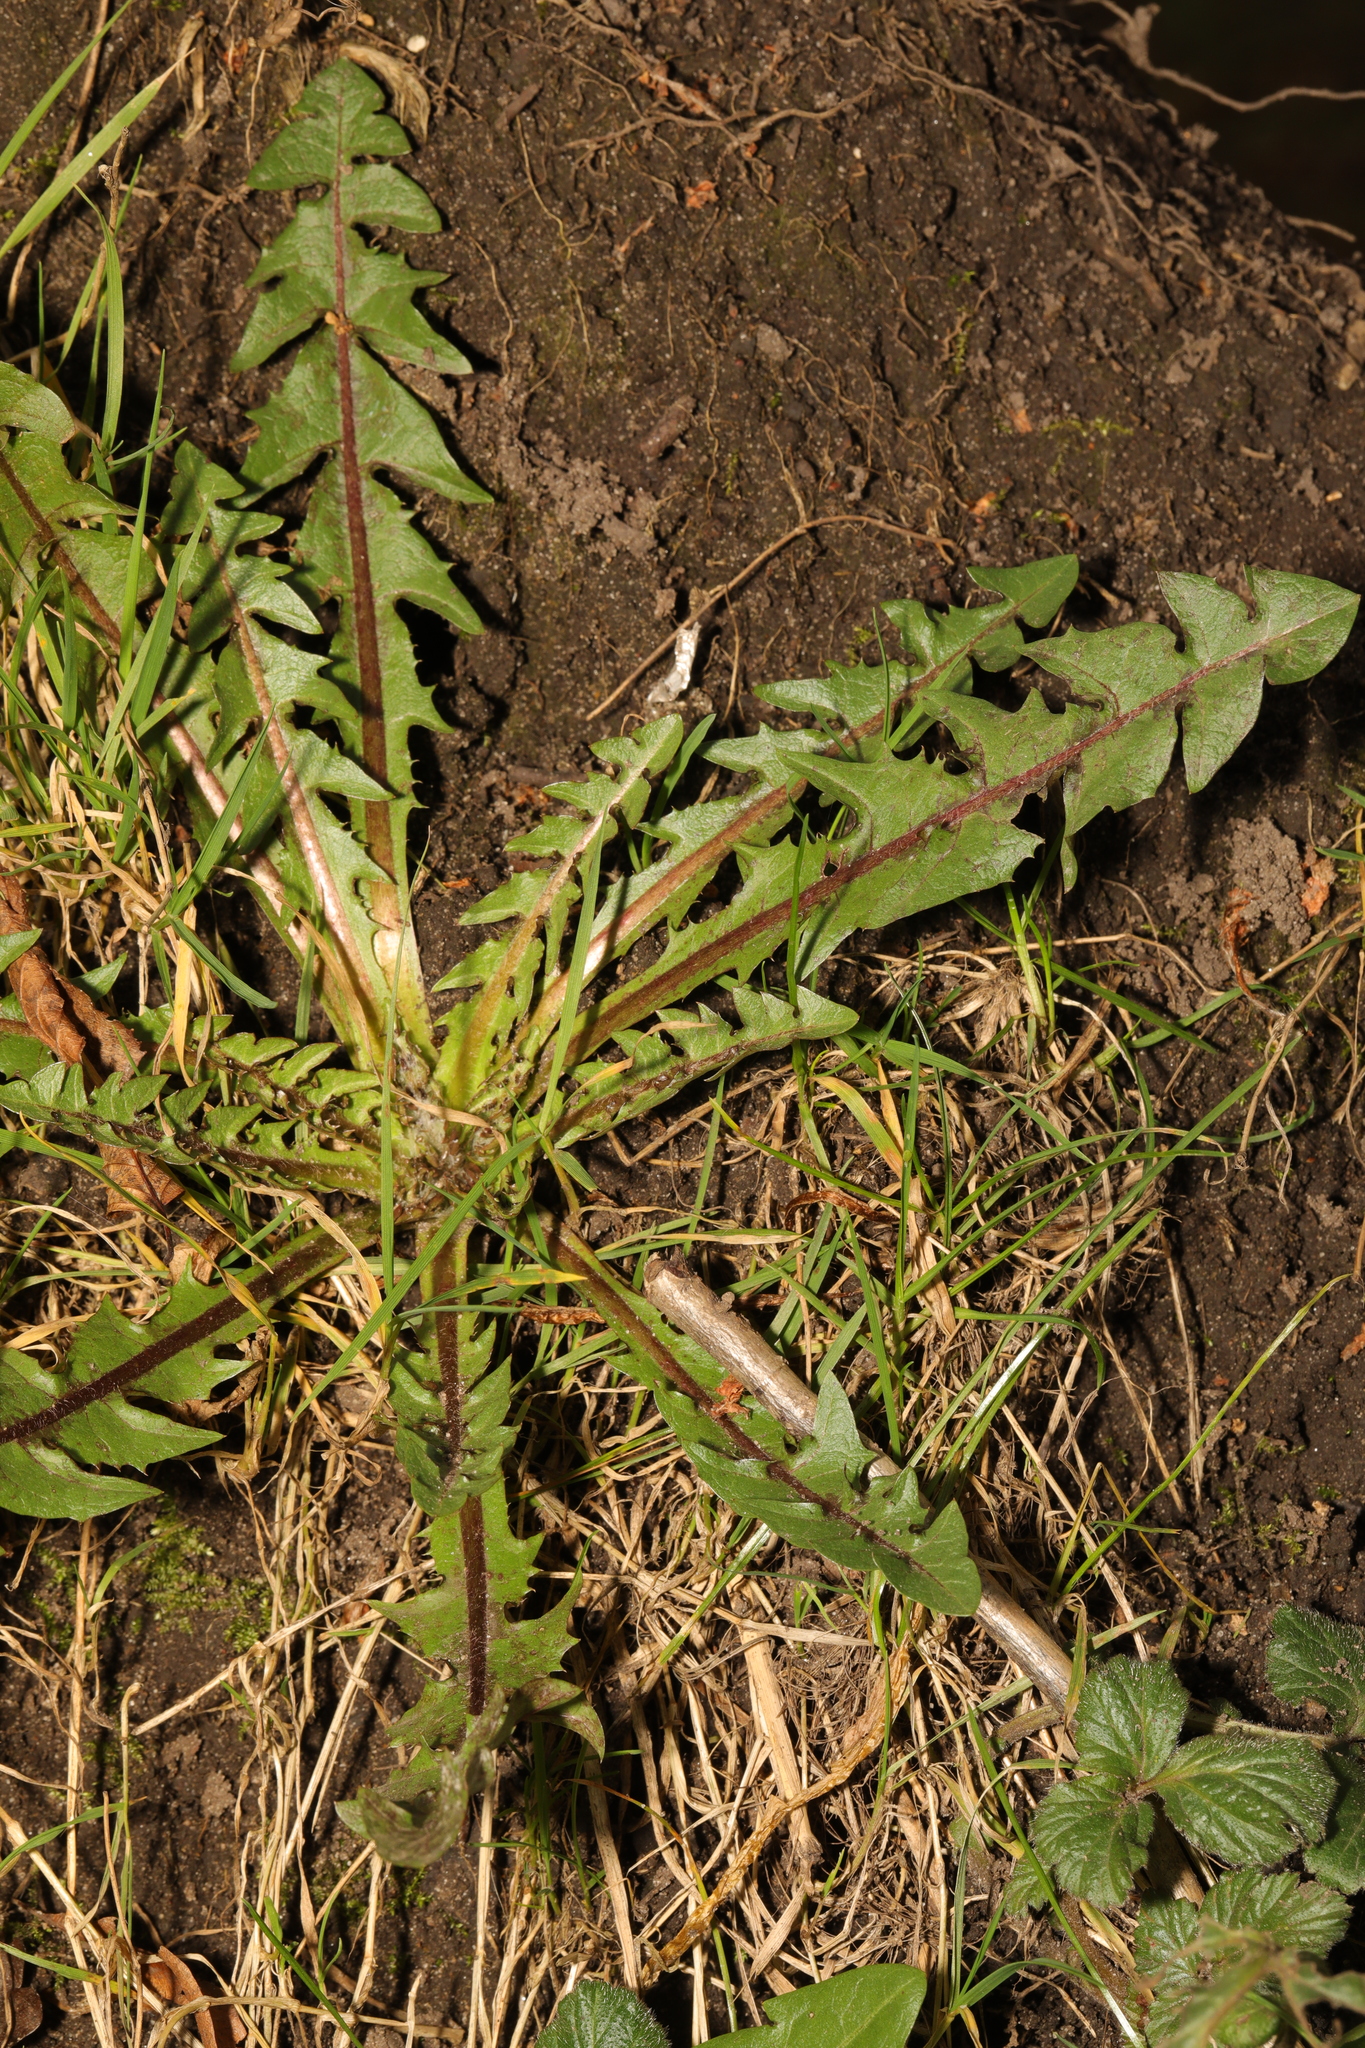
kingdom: Plantae
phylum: Tracheophyta
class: Magnoliopsida
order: Asterales
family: Asteraceae
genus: Taraxacum
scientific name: Taraxacum officinale
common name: Common dandelion
